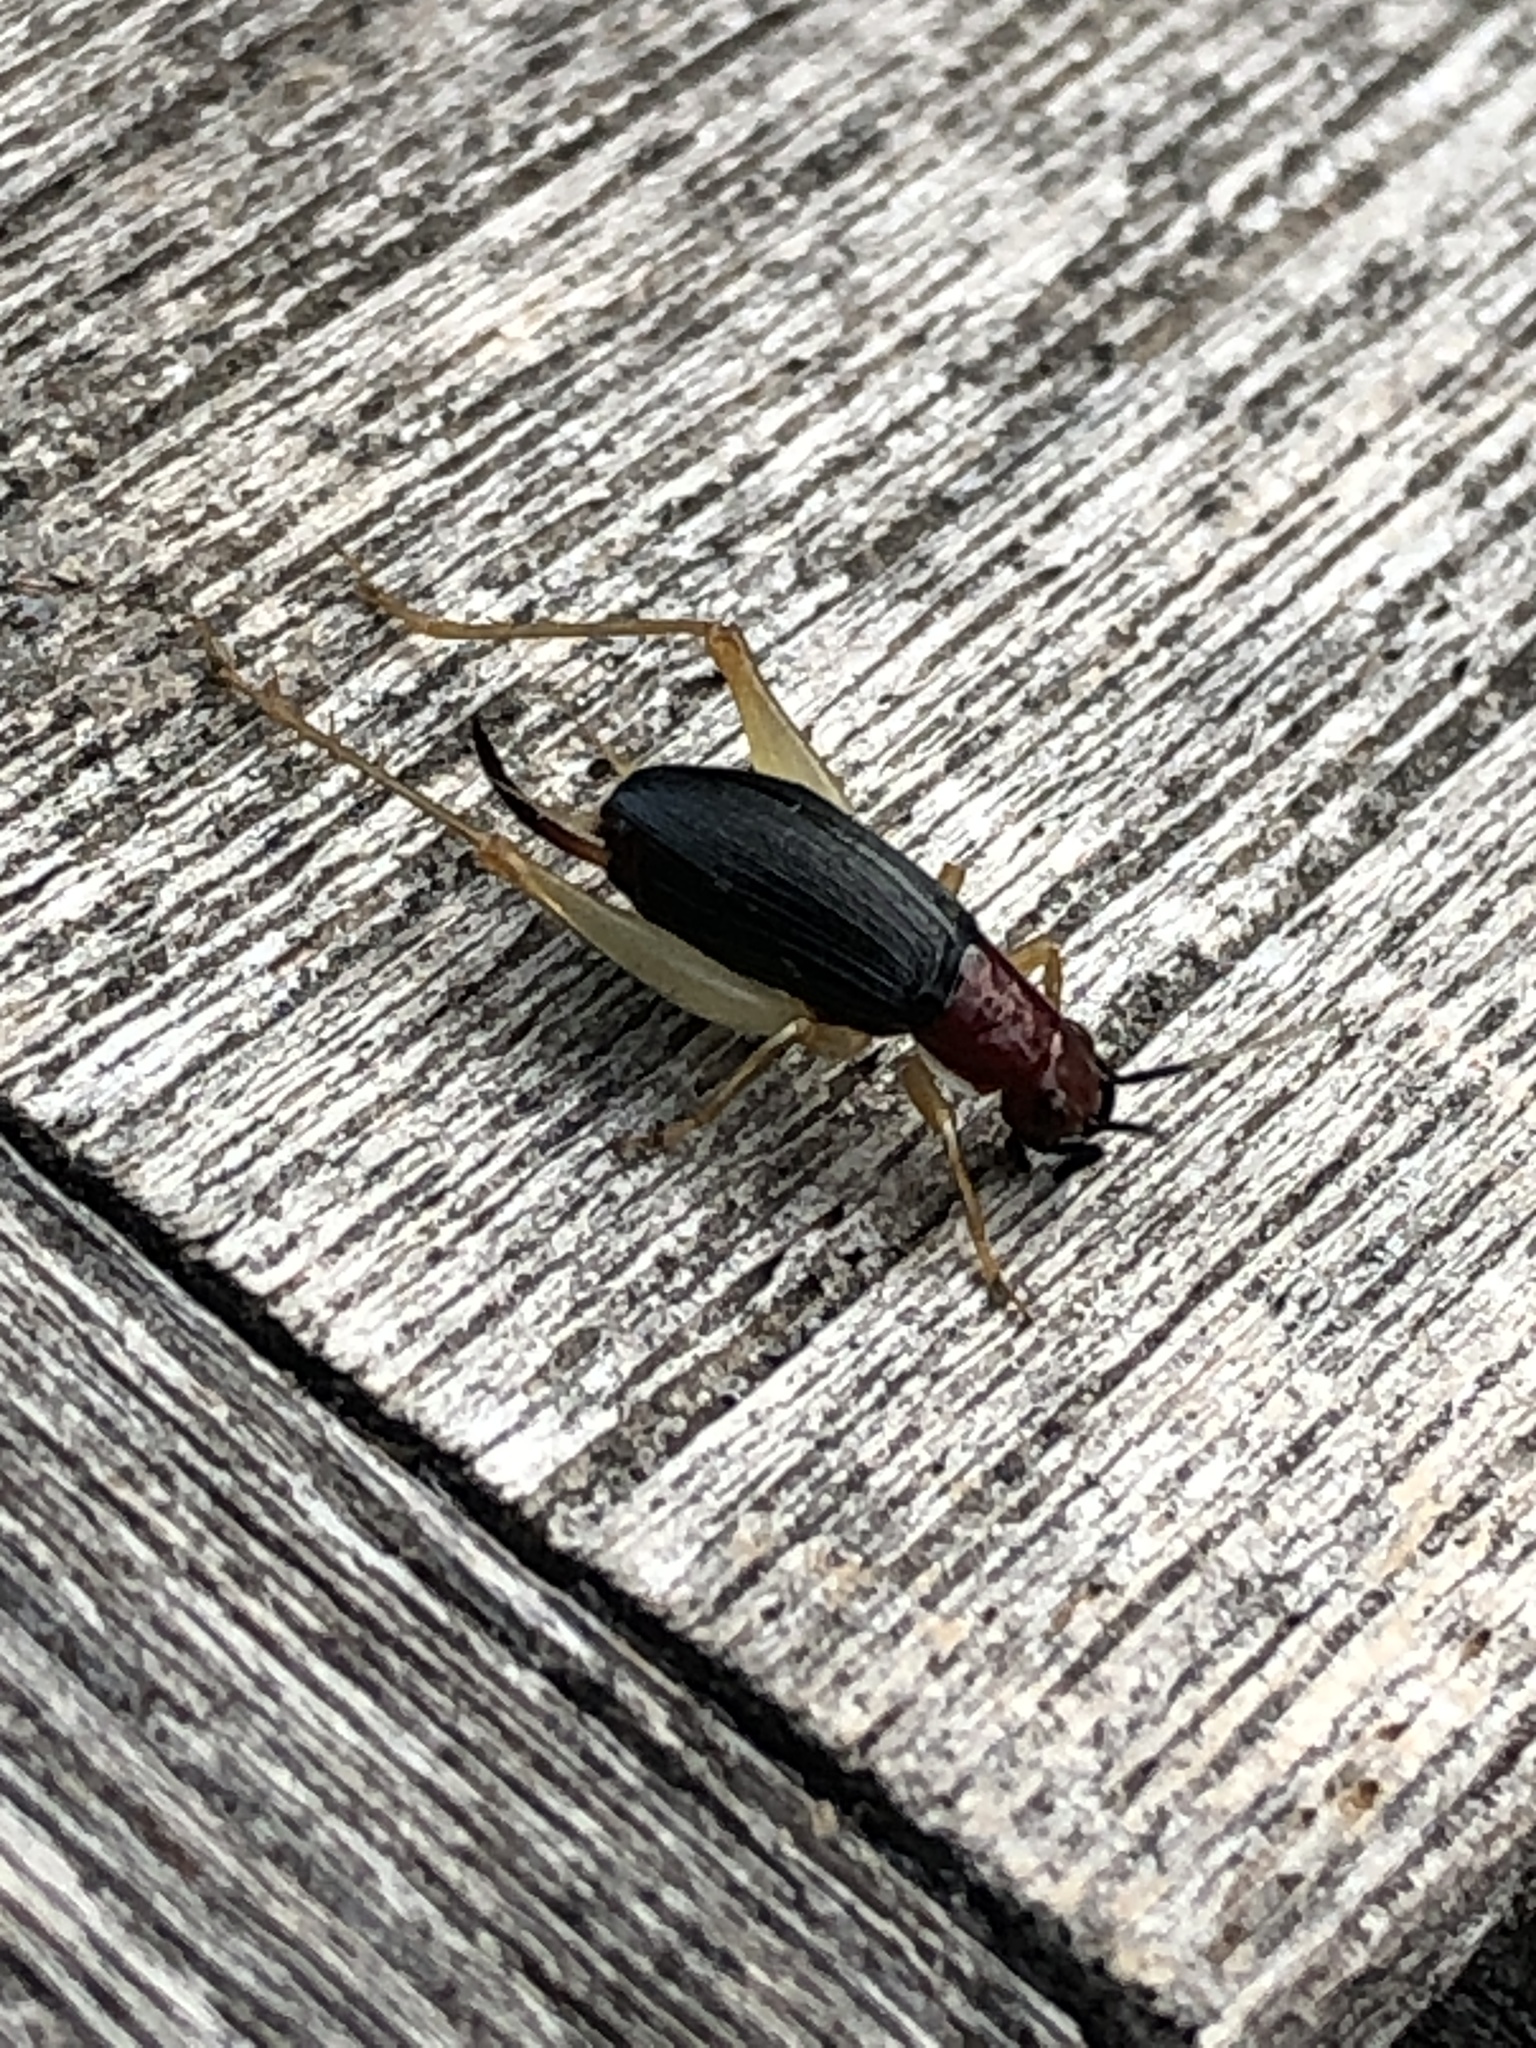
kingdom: Animalia
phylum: Arthropoda
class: Insecta
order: Orthoptera
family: Trigonidiidae
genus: Phyllopalpus
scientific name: Phyllopalpus pulchellus
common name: Handsome trig
